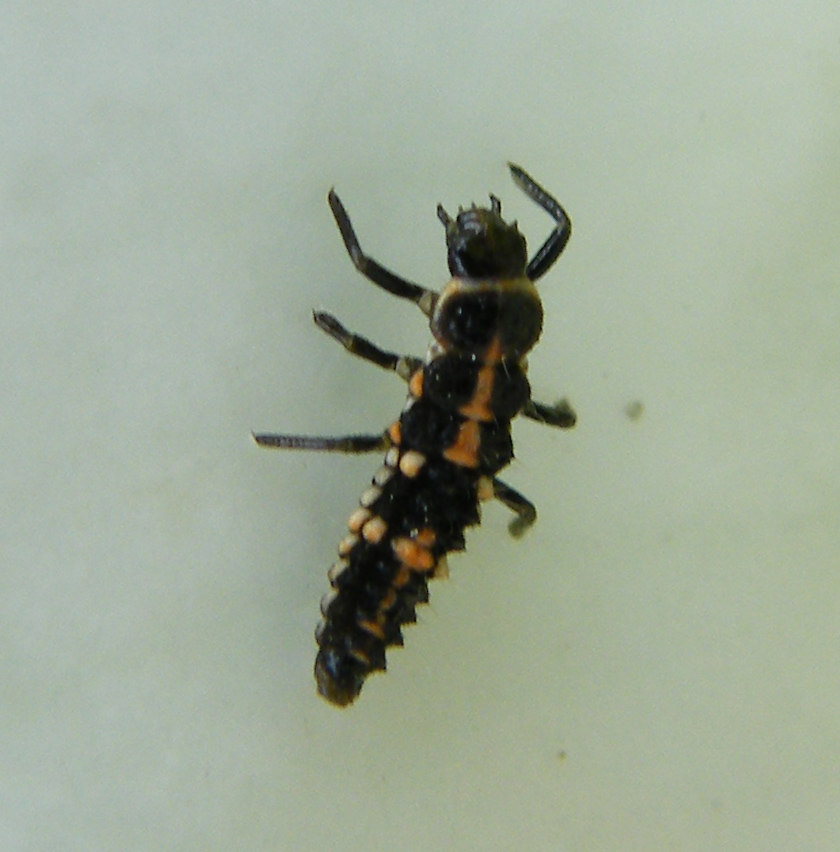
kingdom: Animalia
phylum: Arthropoda
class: Insecta
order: Coleoptera
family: Coccinellidae
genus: Oenopia
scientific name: Oenopia conglobata
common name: Ladybird beetle
